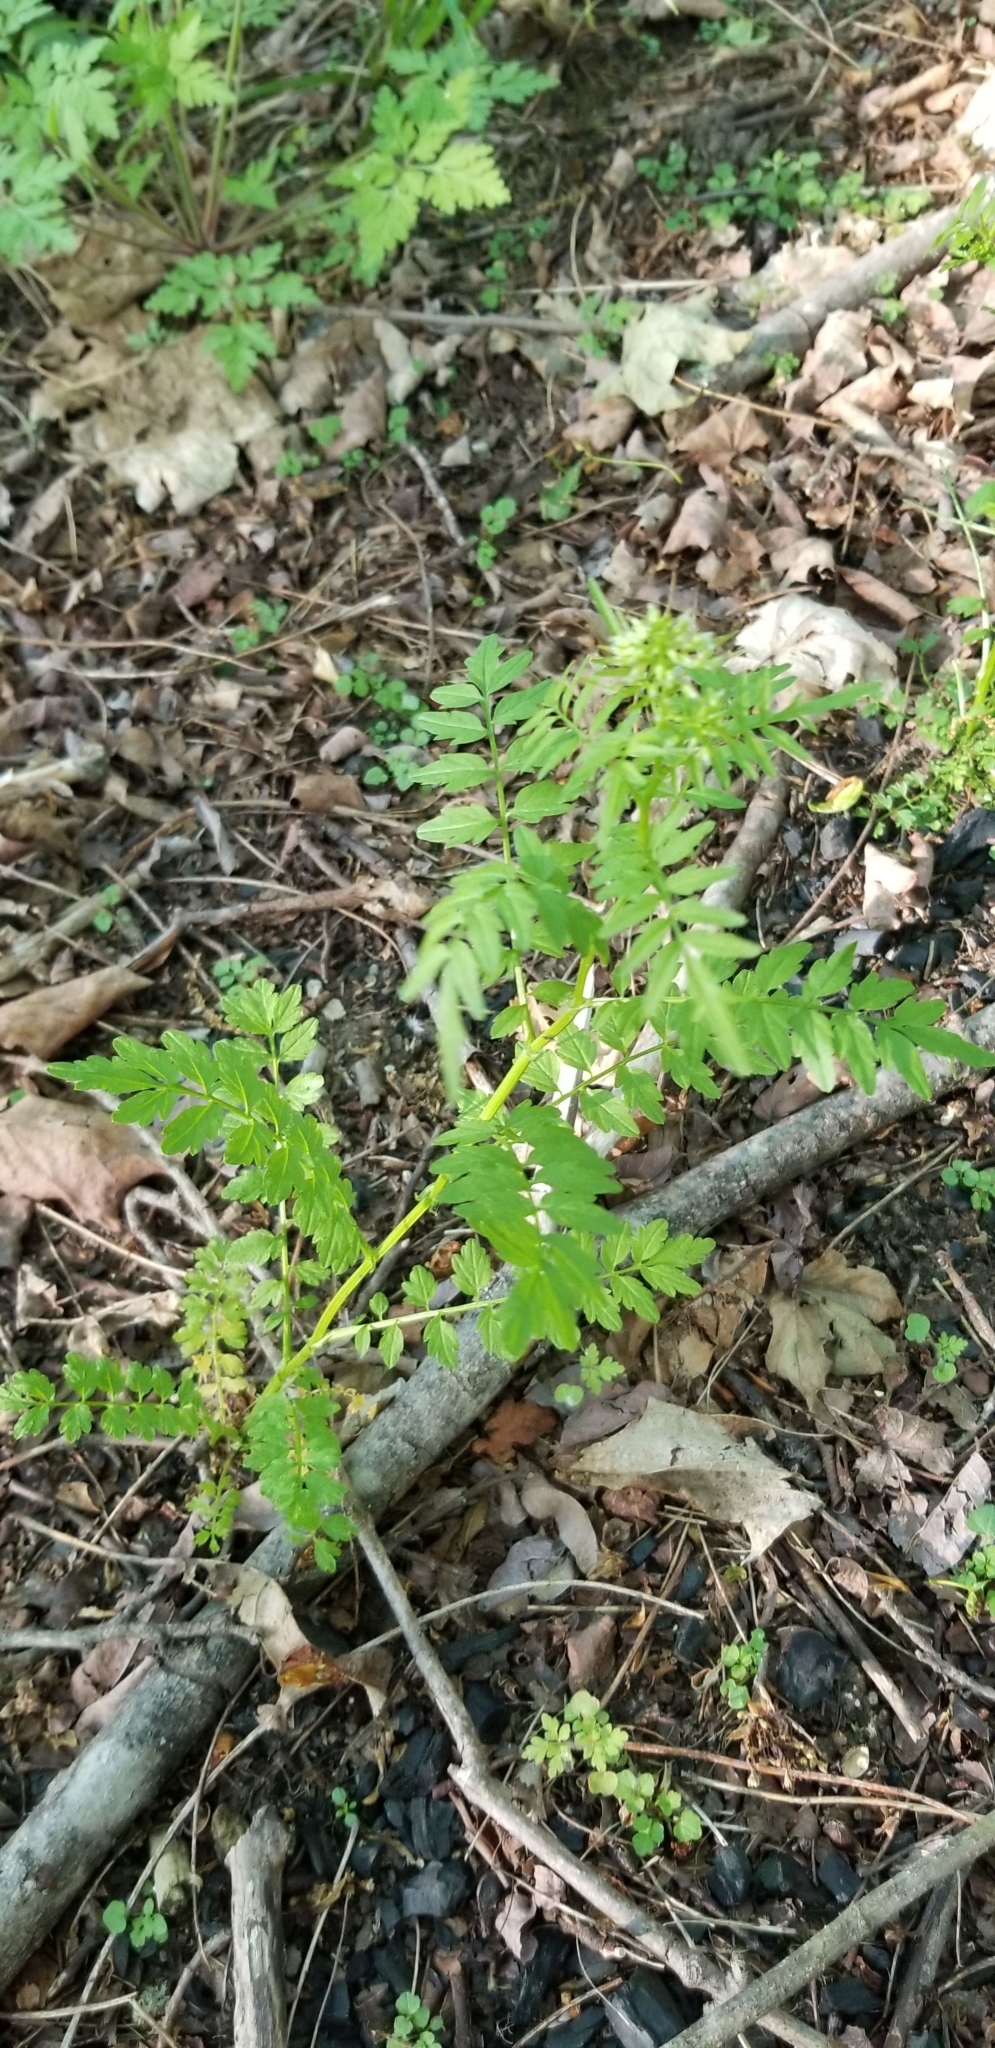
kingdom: Plantae
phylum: Tracheophyta
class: Magnoliopsida
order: Brassicales
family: Brassicaceae
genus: Cardamine
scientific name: Cardamine impatiens
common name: Narrow-leaved bitter-cress
